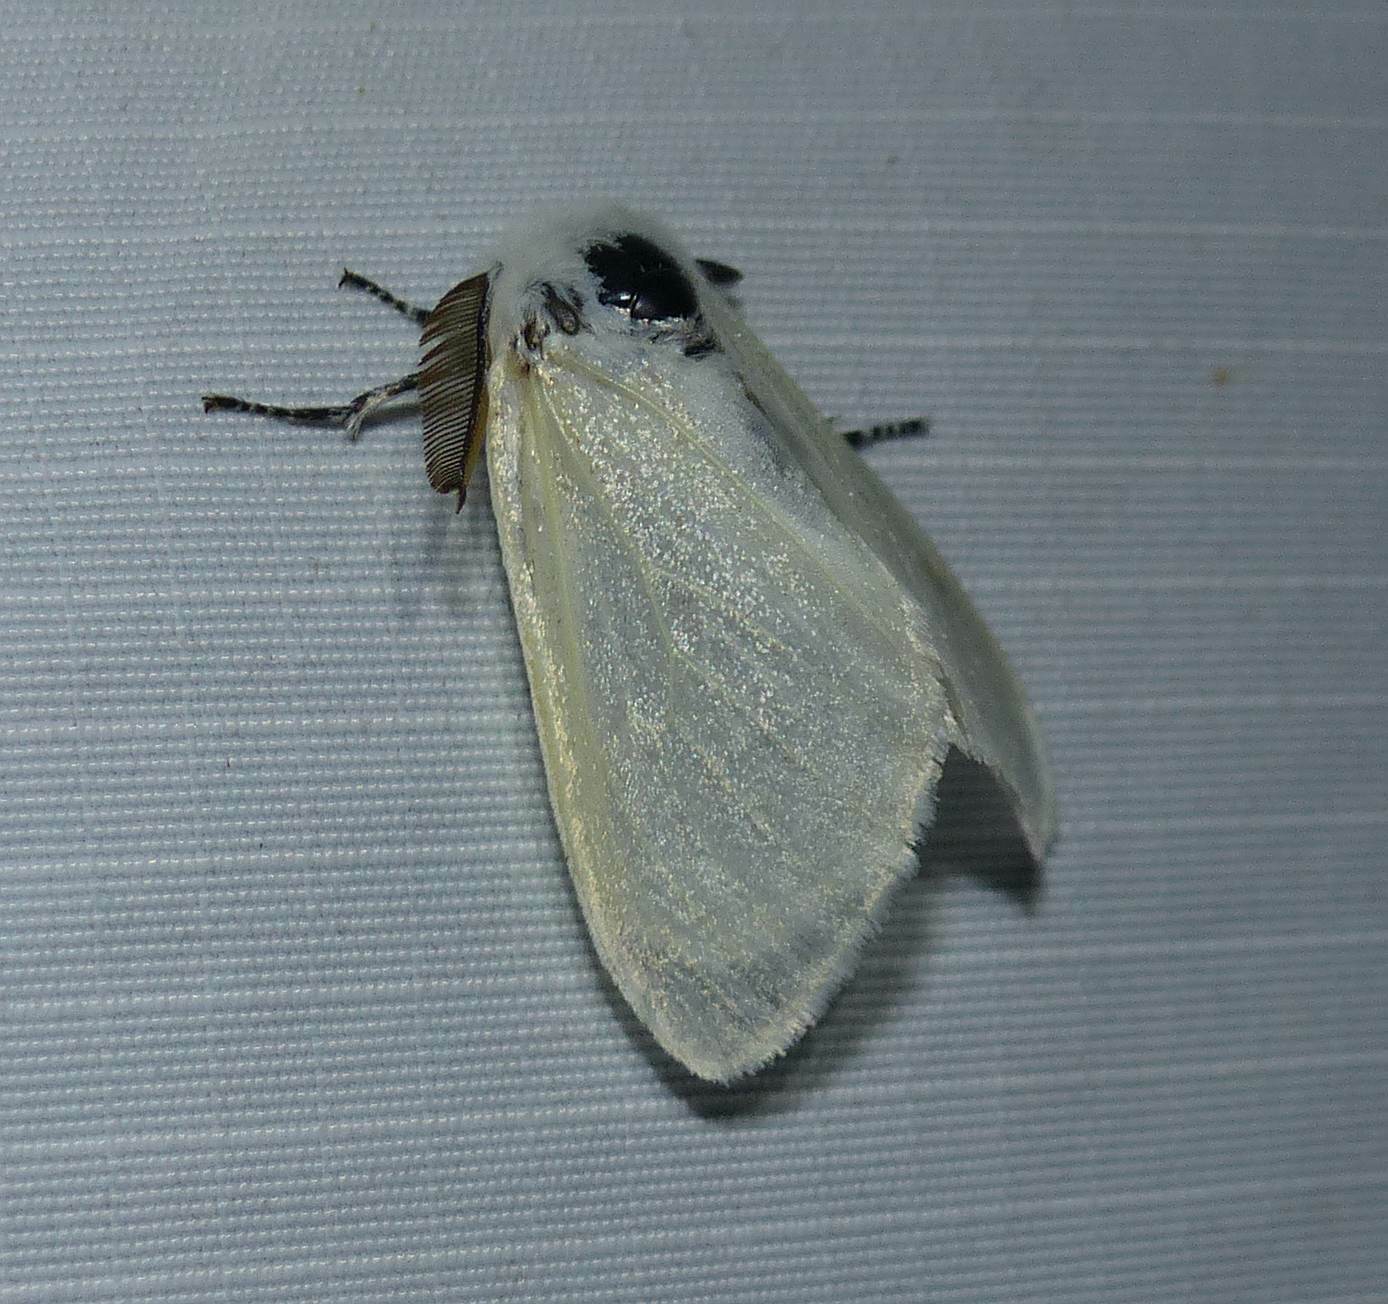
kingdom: Animalia
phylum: Arthropoda
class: Insecta
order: Lepidoptera
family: Erebidae
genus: Leucoma
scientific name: Leucoma salicis
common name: White satin moth
